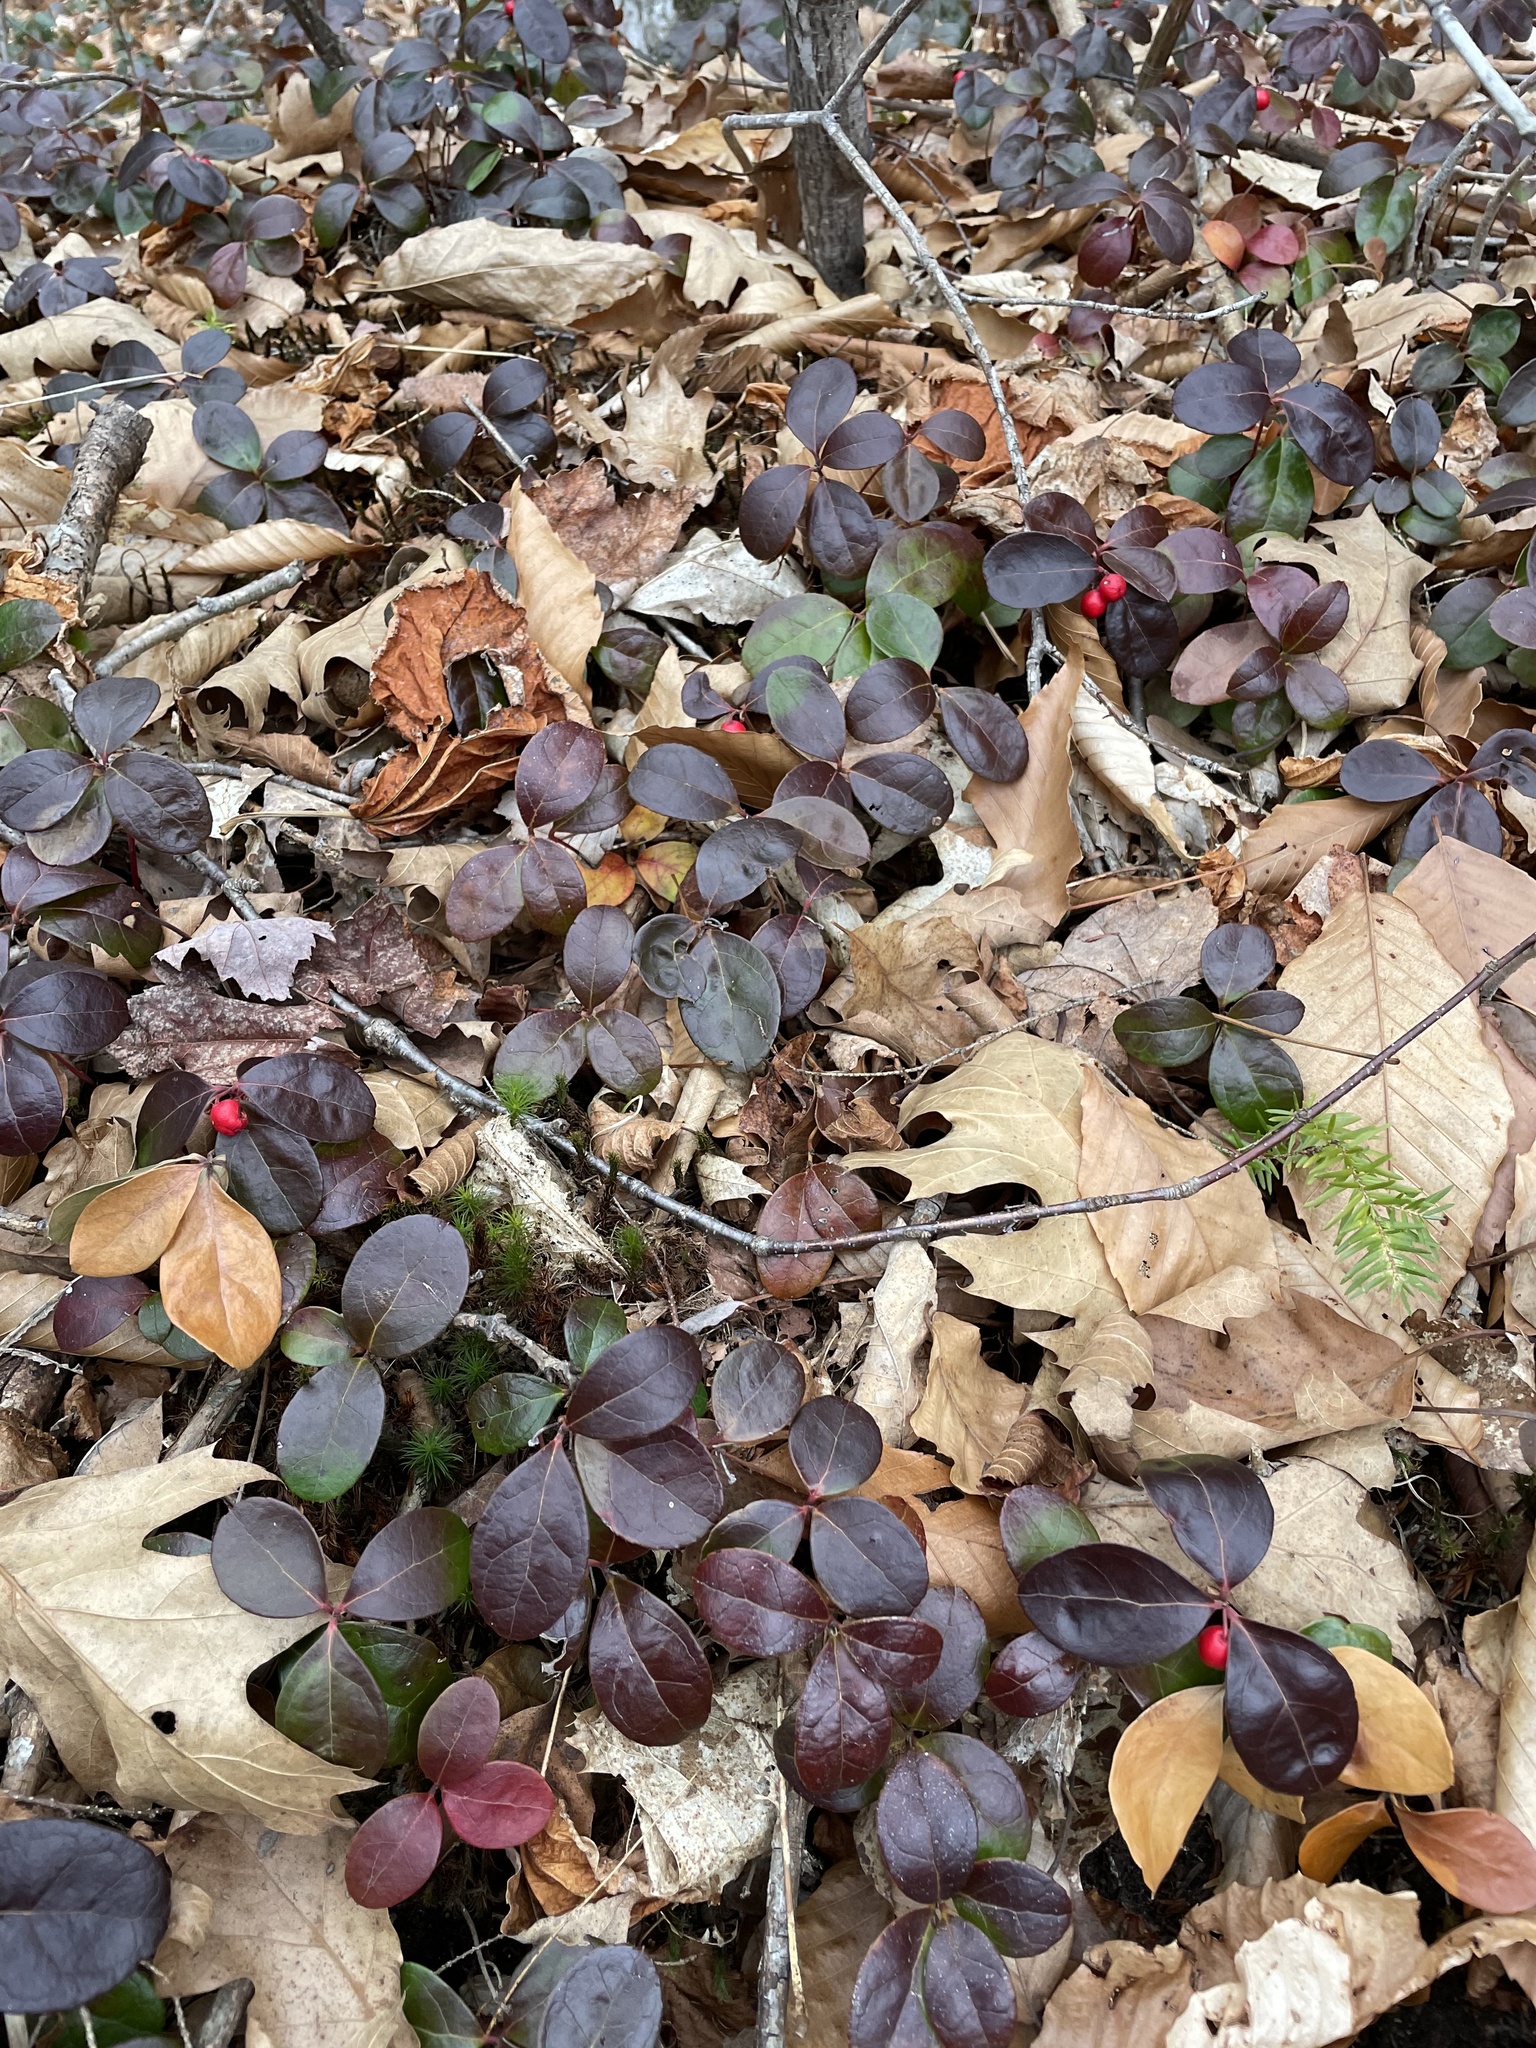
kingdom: Plantae
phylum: Tracheophyta
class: Magnoliopsida
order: Ericales
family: Ericaceae
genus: Gaultheria
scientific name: Gaultheria procumbens
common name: Checkerberry
